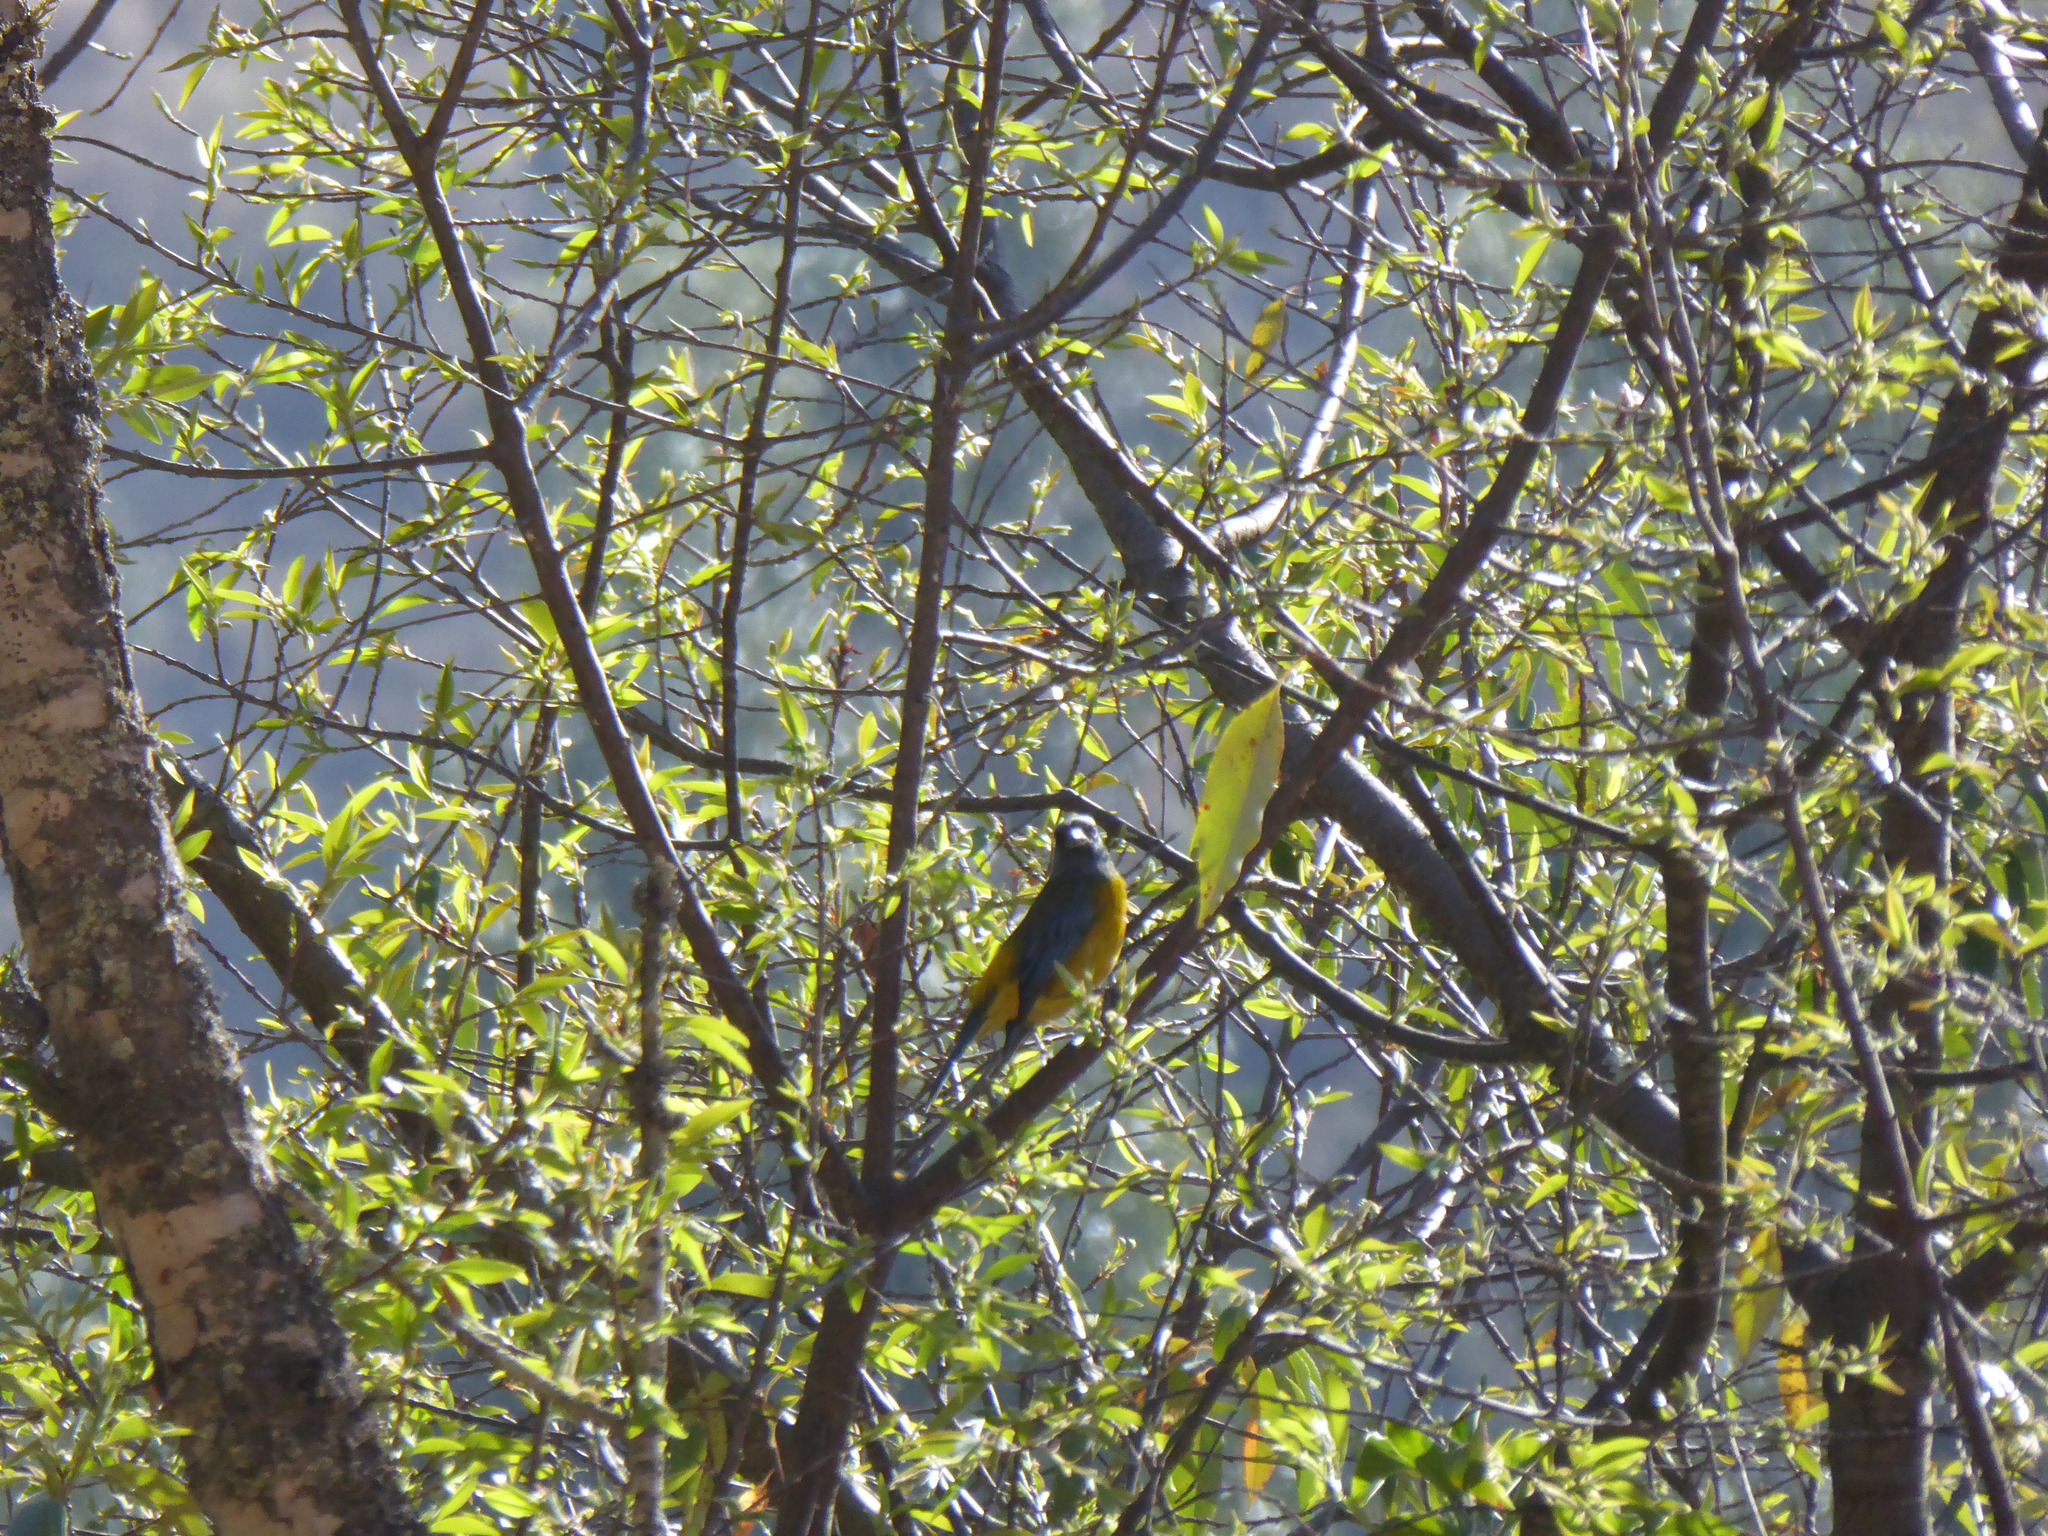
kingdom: Animalia
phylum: Chordata
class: Aves
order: Passeriformes
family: Thraupidae
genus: Rauenia
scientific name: Rauenia bonariensis
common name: Blue-and-yellow tanager
